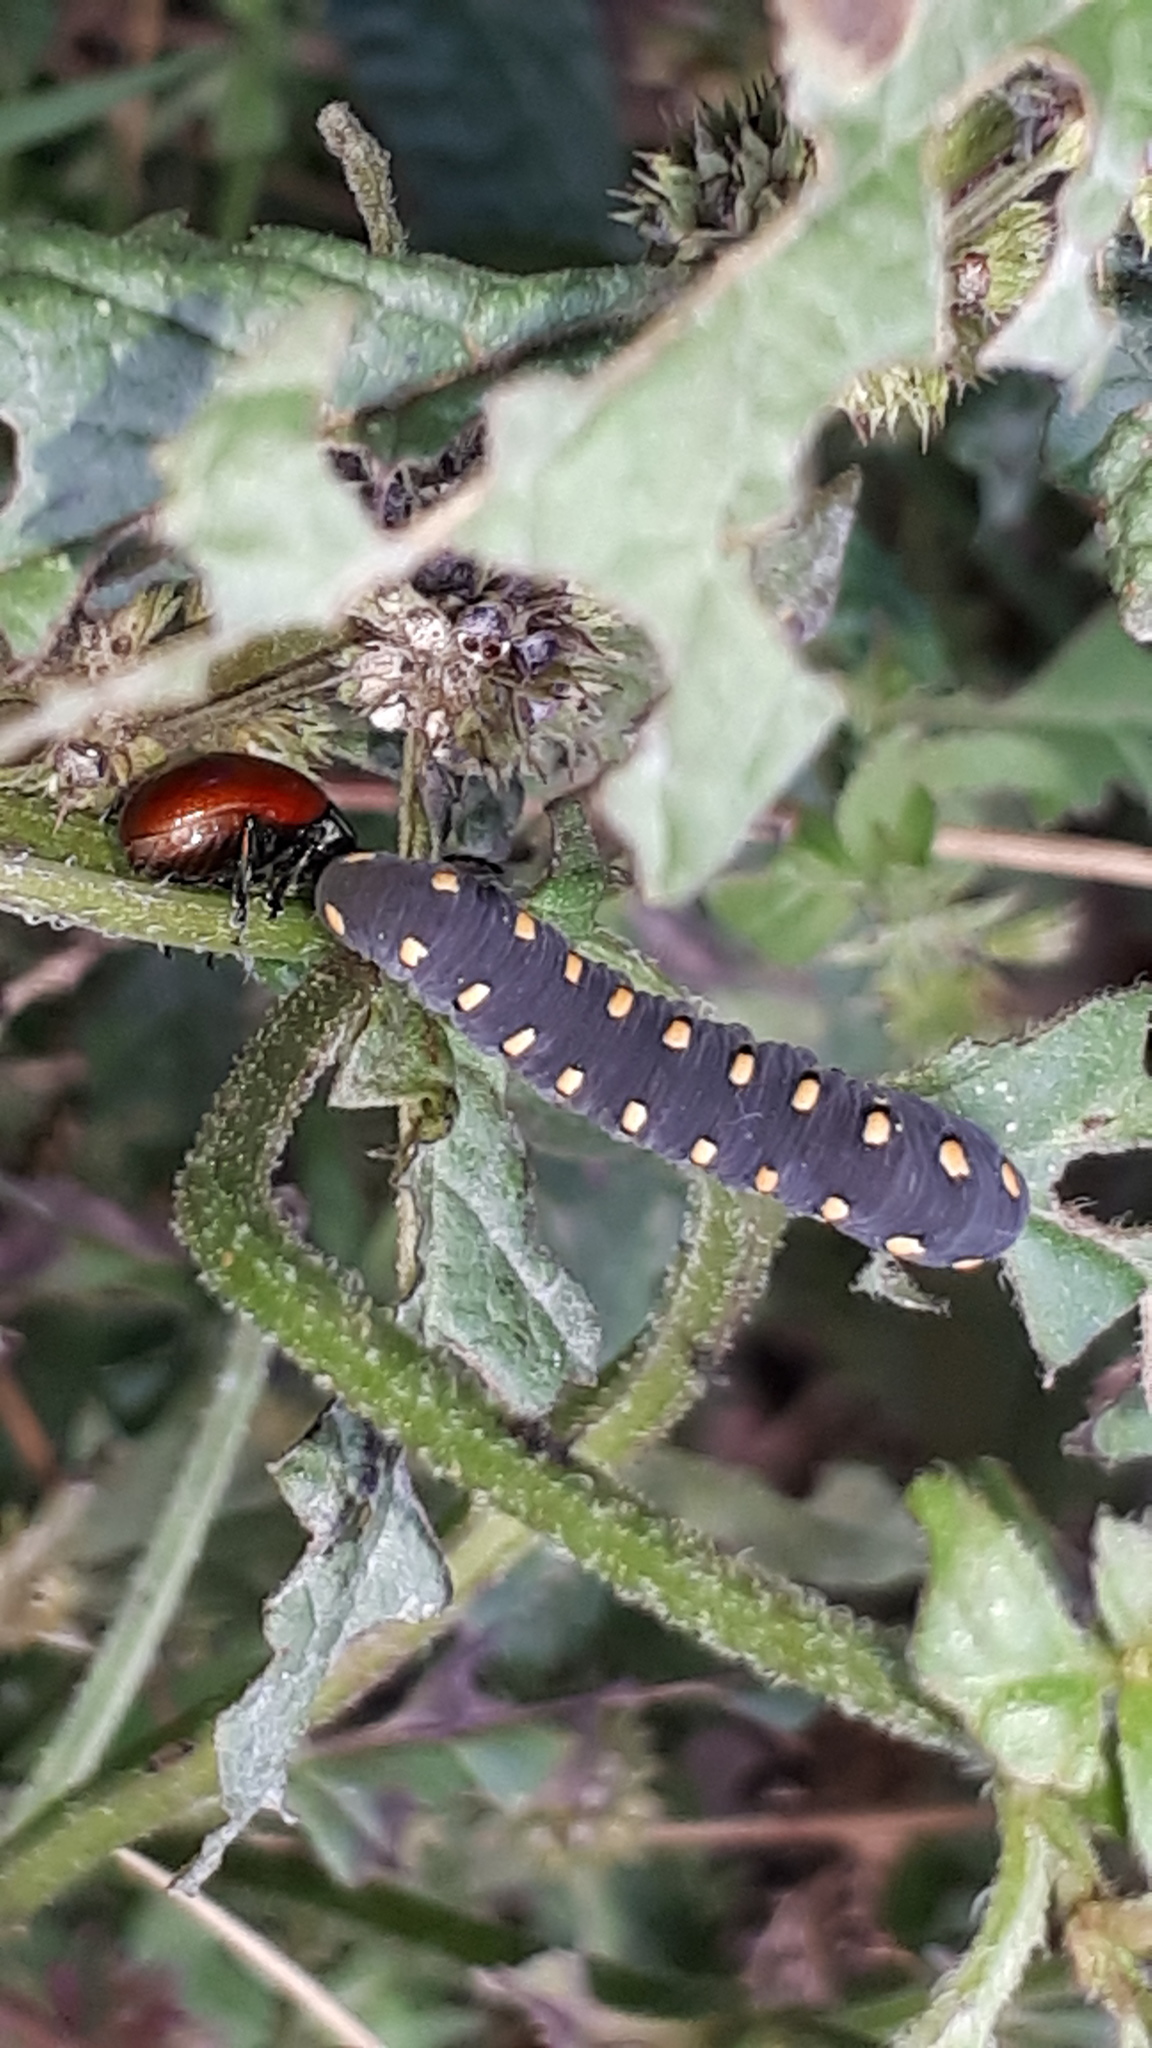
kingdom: Animalia
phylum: Arthropoda
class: Insecta
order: Hymenoptera
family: Tenthredinidae
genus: Tenthredo
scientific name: Tenthredo marginella
